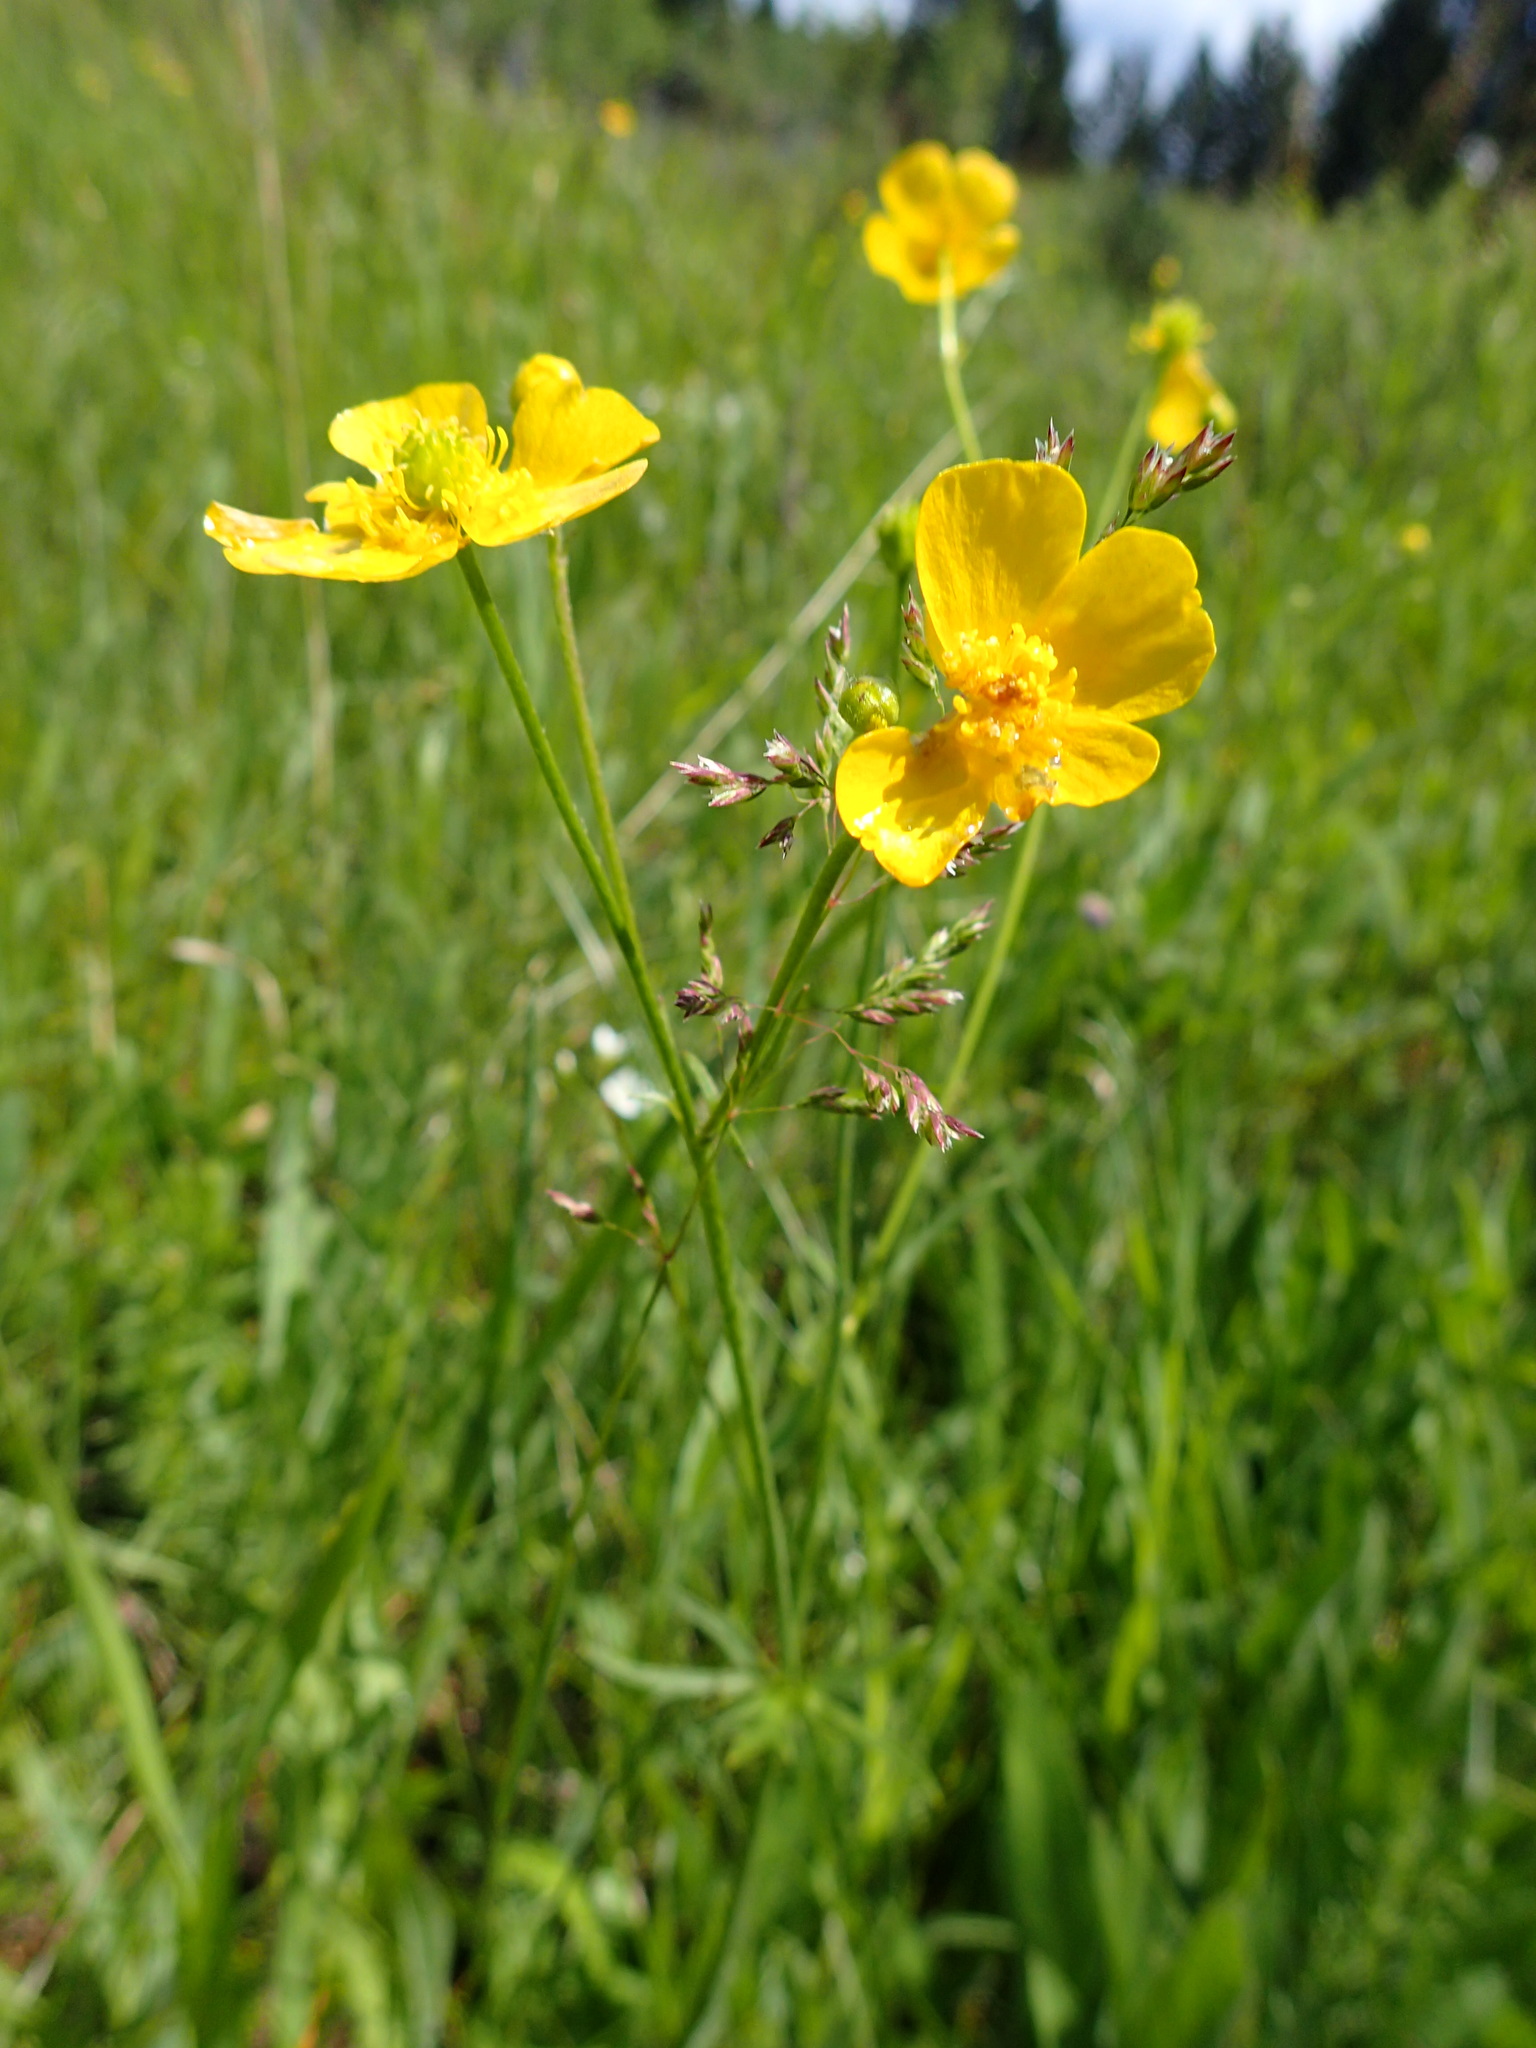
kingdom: Plantae
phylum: Tracheophyta
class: Magnoliopsida
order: Ranunculales
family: Ranunculaceae
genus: Ranunculus
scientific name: Ranunculus acris
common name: Meadow buttercup
